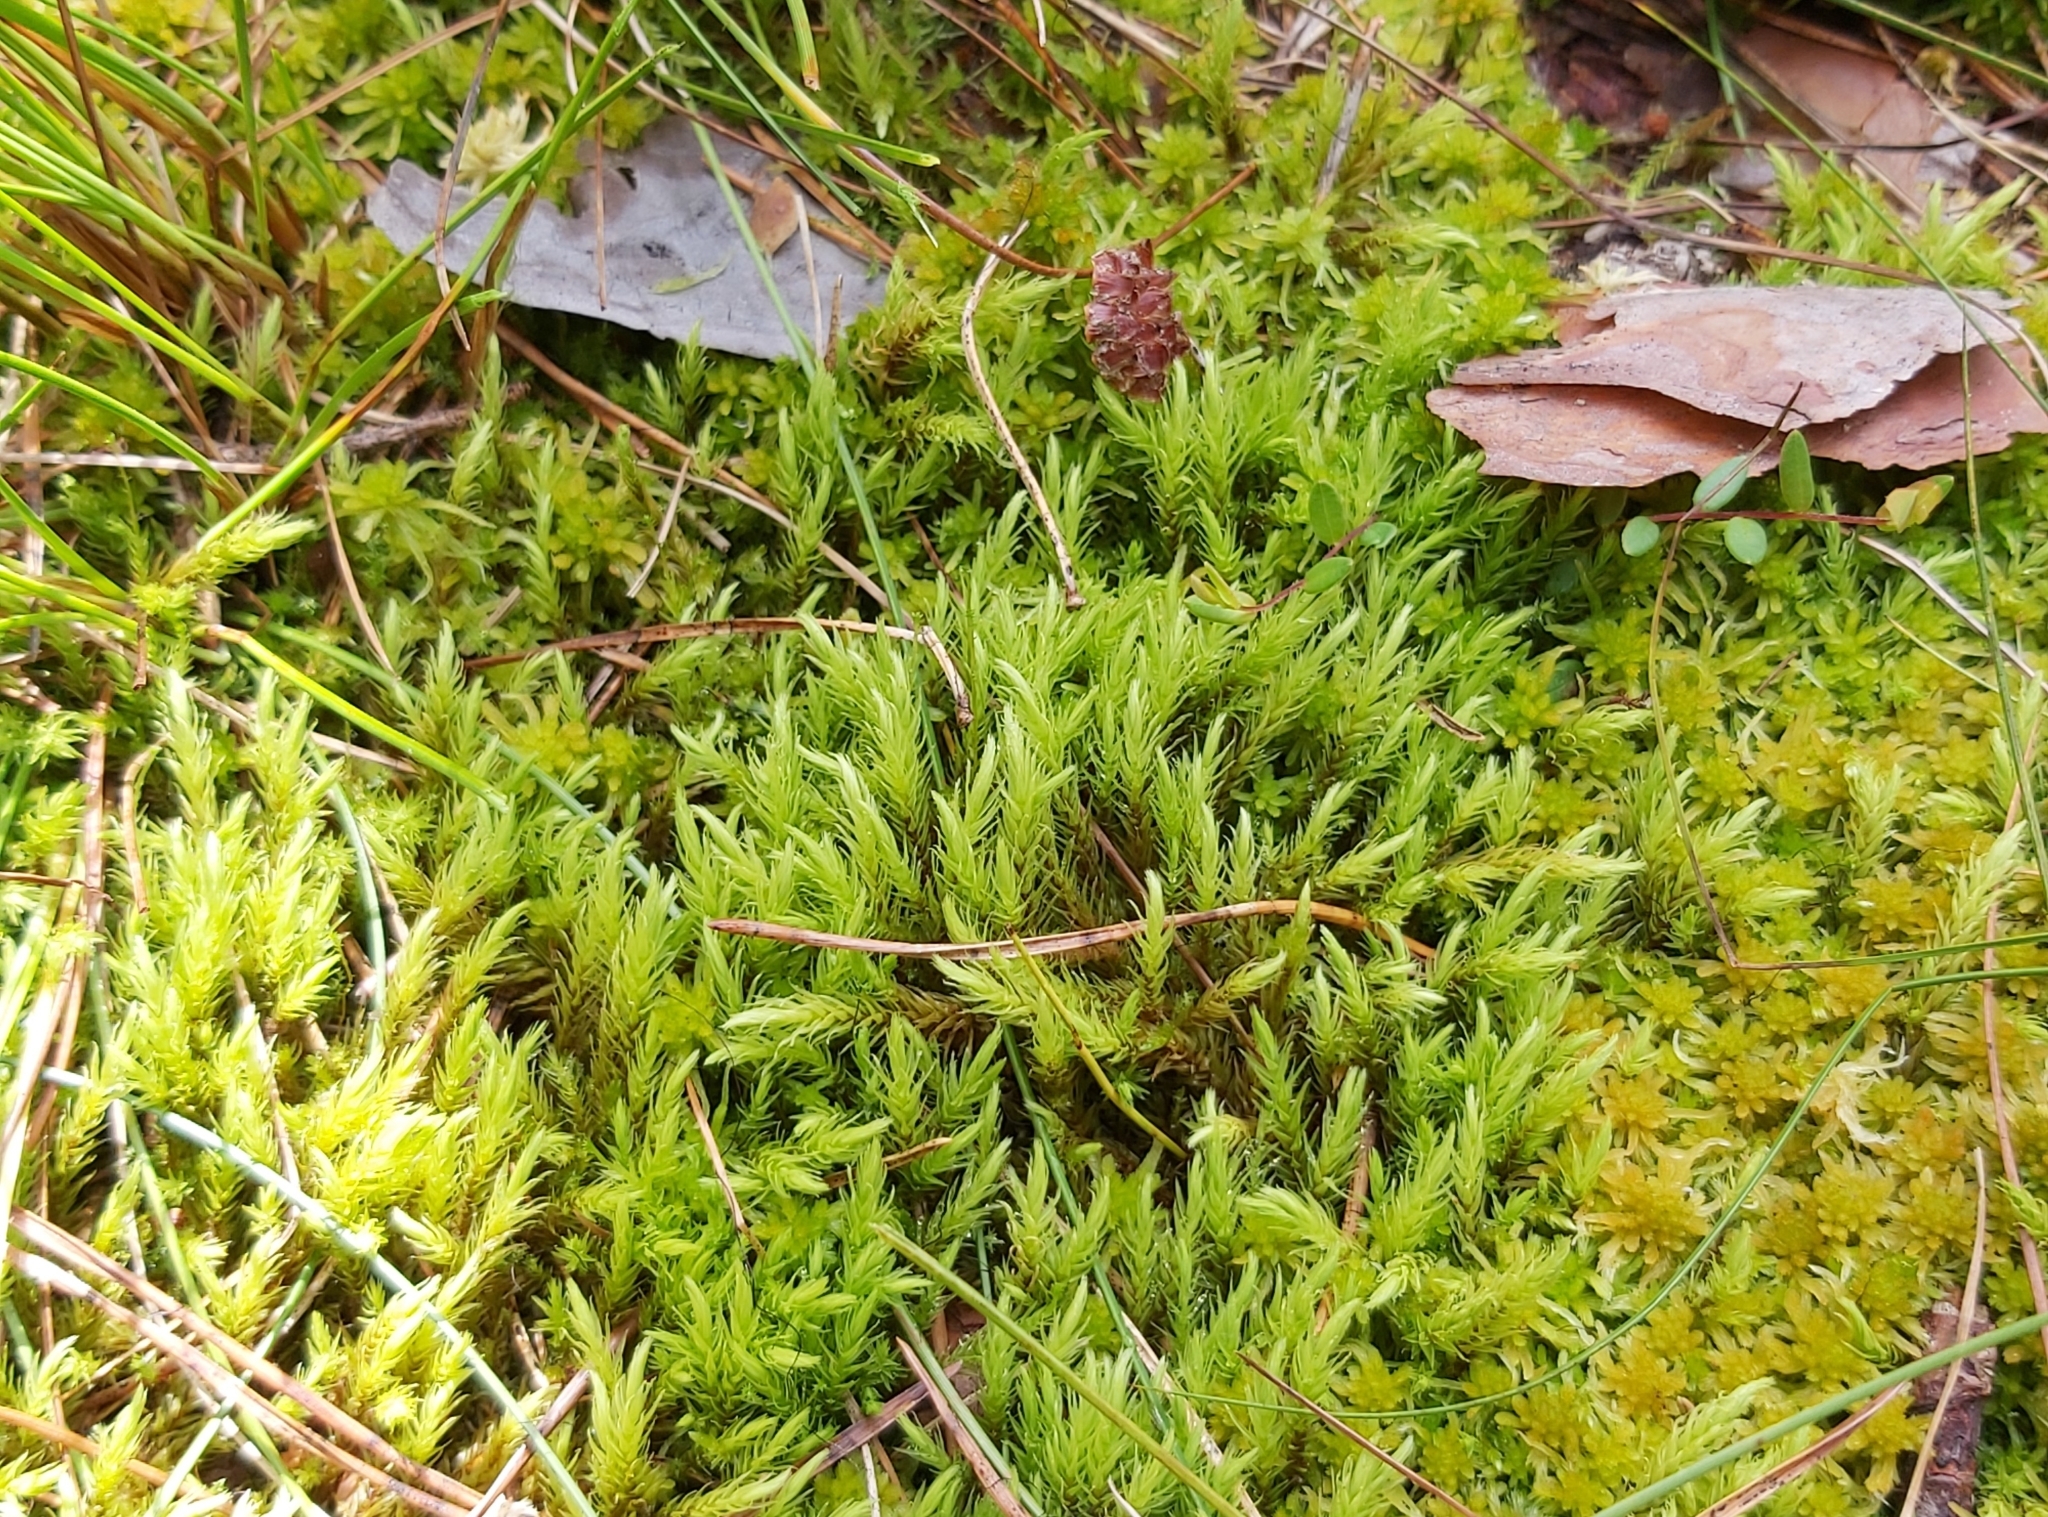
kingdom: Plantae
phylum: Bryophyta
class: Bryopsida
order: Aulacomniales
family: Aulacomniaceae
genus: Aulacomnium
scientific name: Aulacomnium palustre
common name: Bog groove-moss
